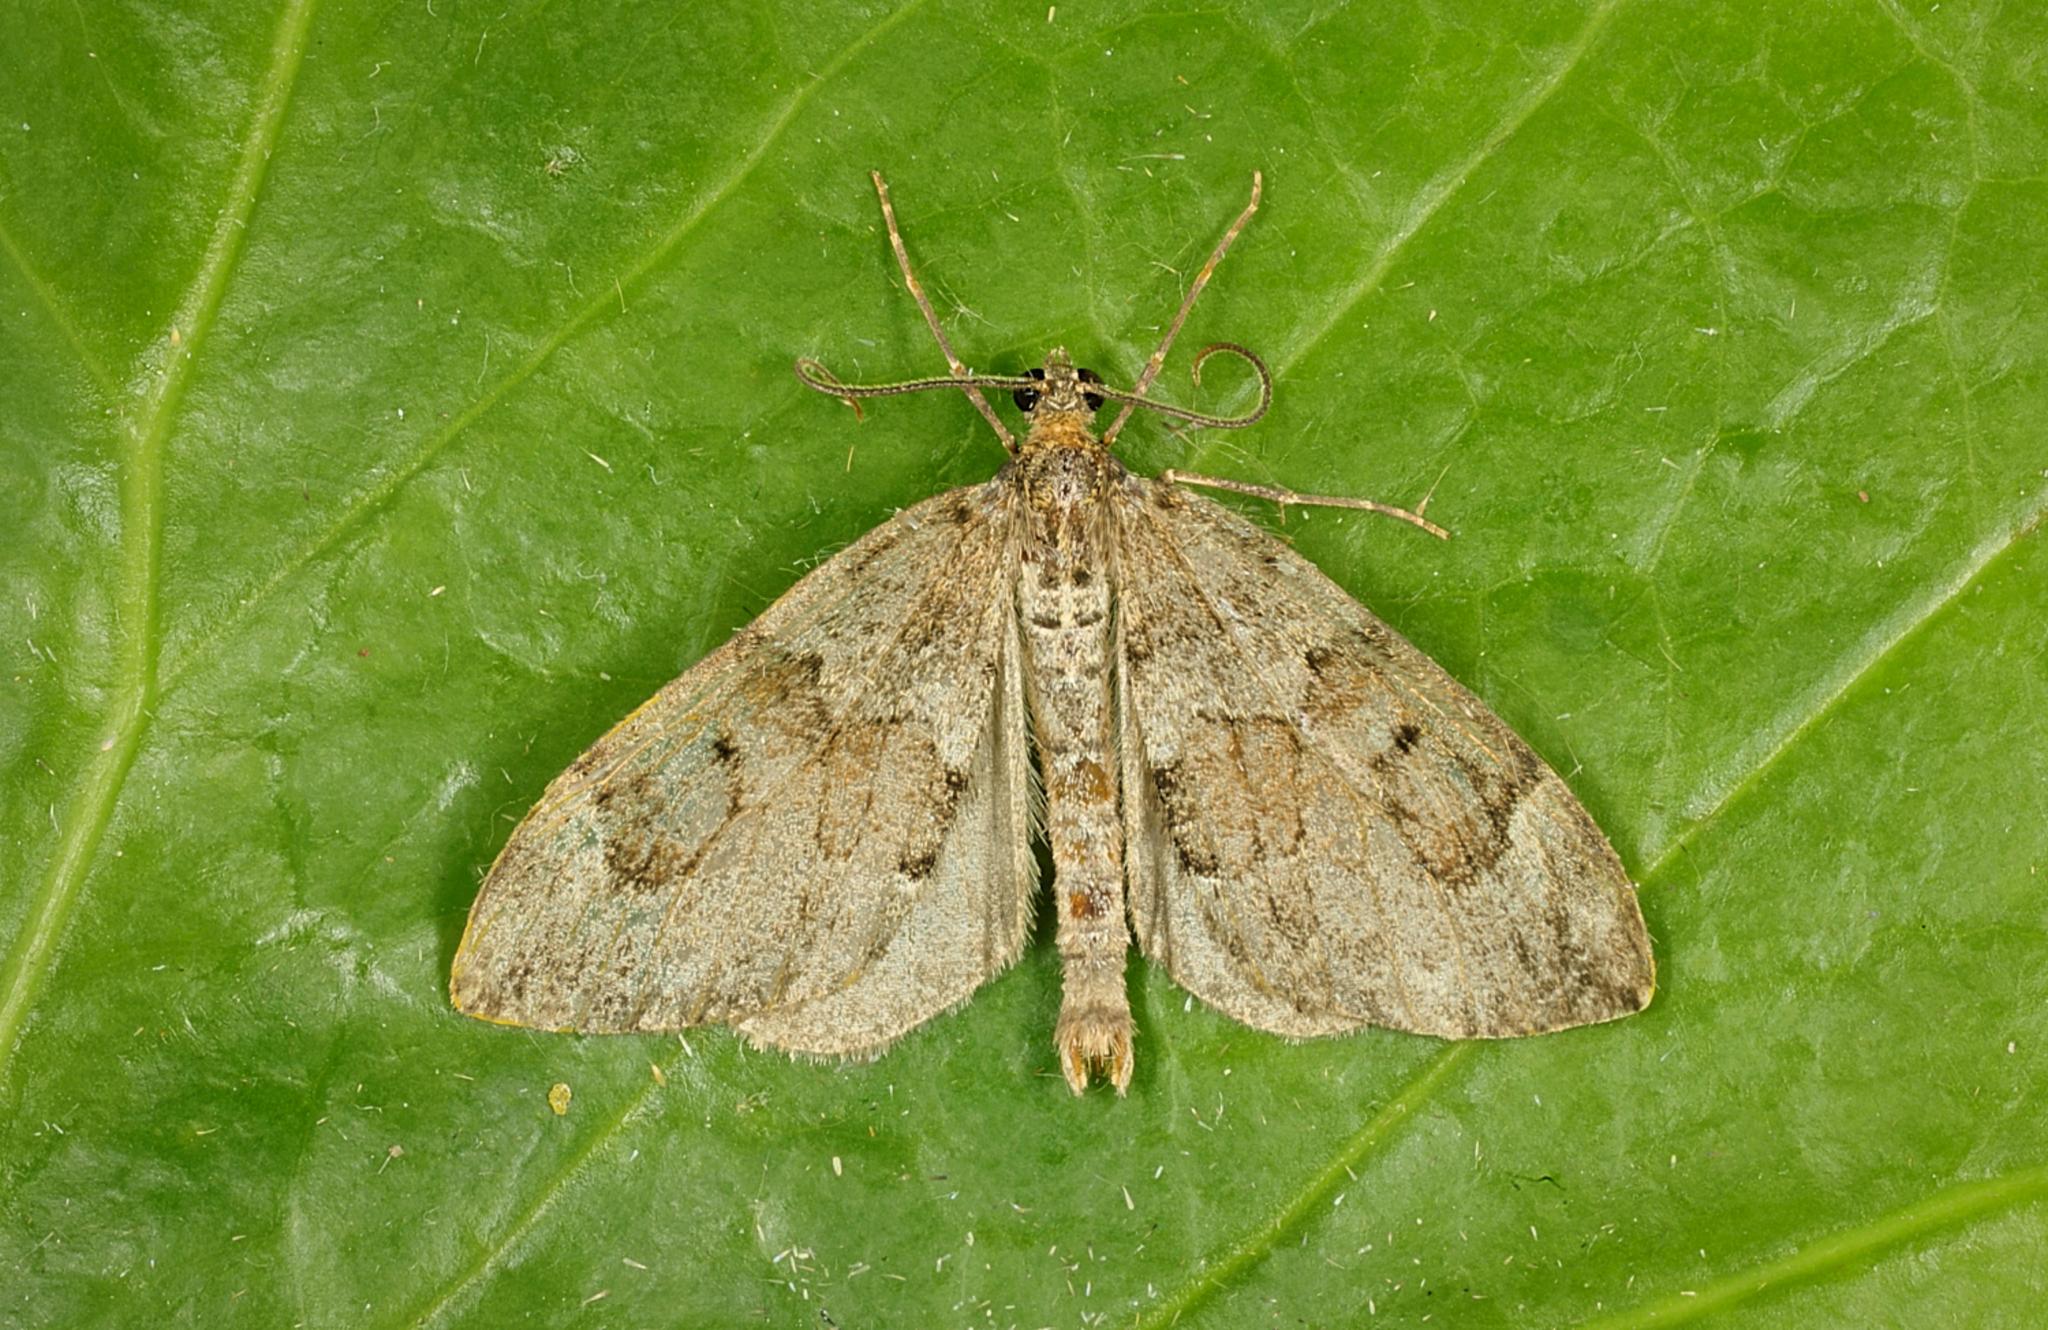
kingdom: Animalia
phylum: Arthropoda
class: Insecta
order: Lepidoptera
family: Geometridae
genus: Thera
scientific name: Thera obeliscata
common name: Grey pine carpet
